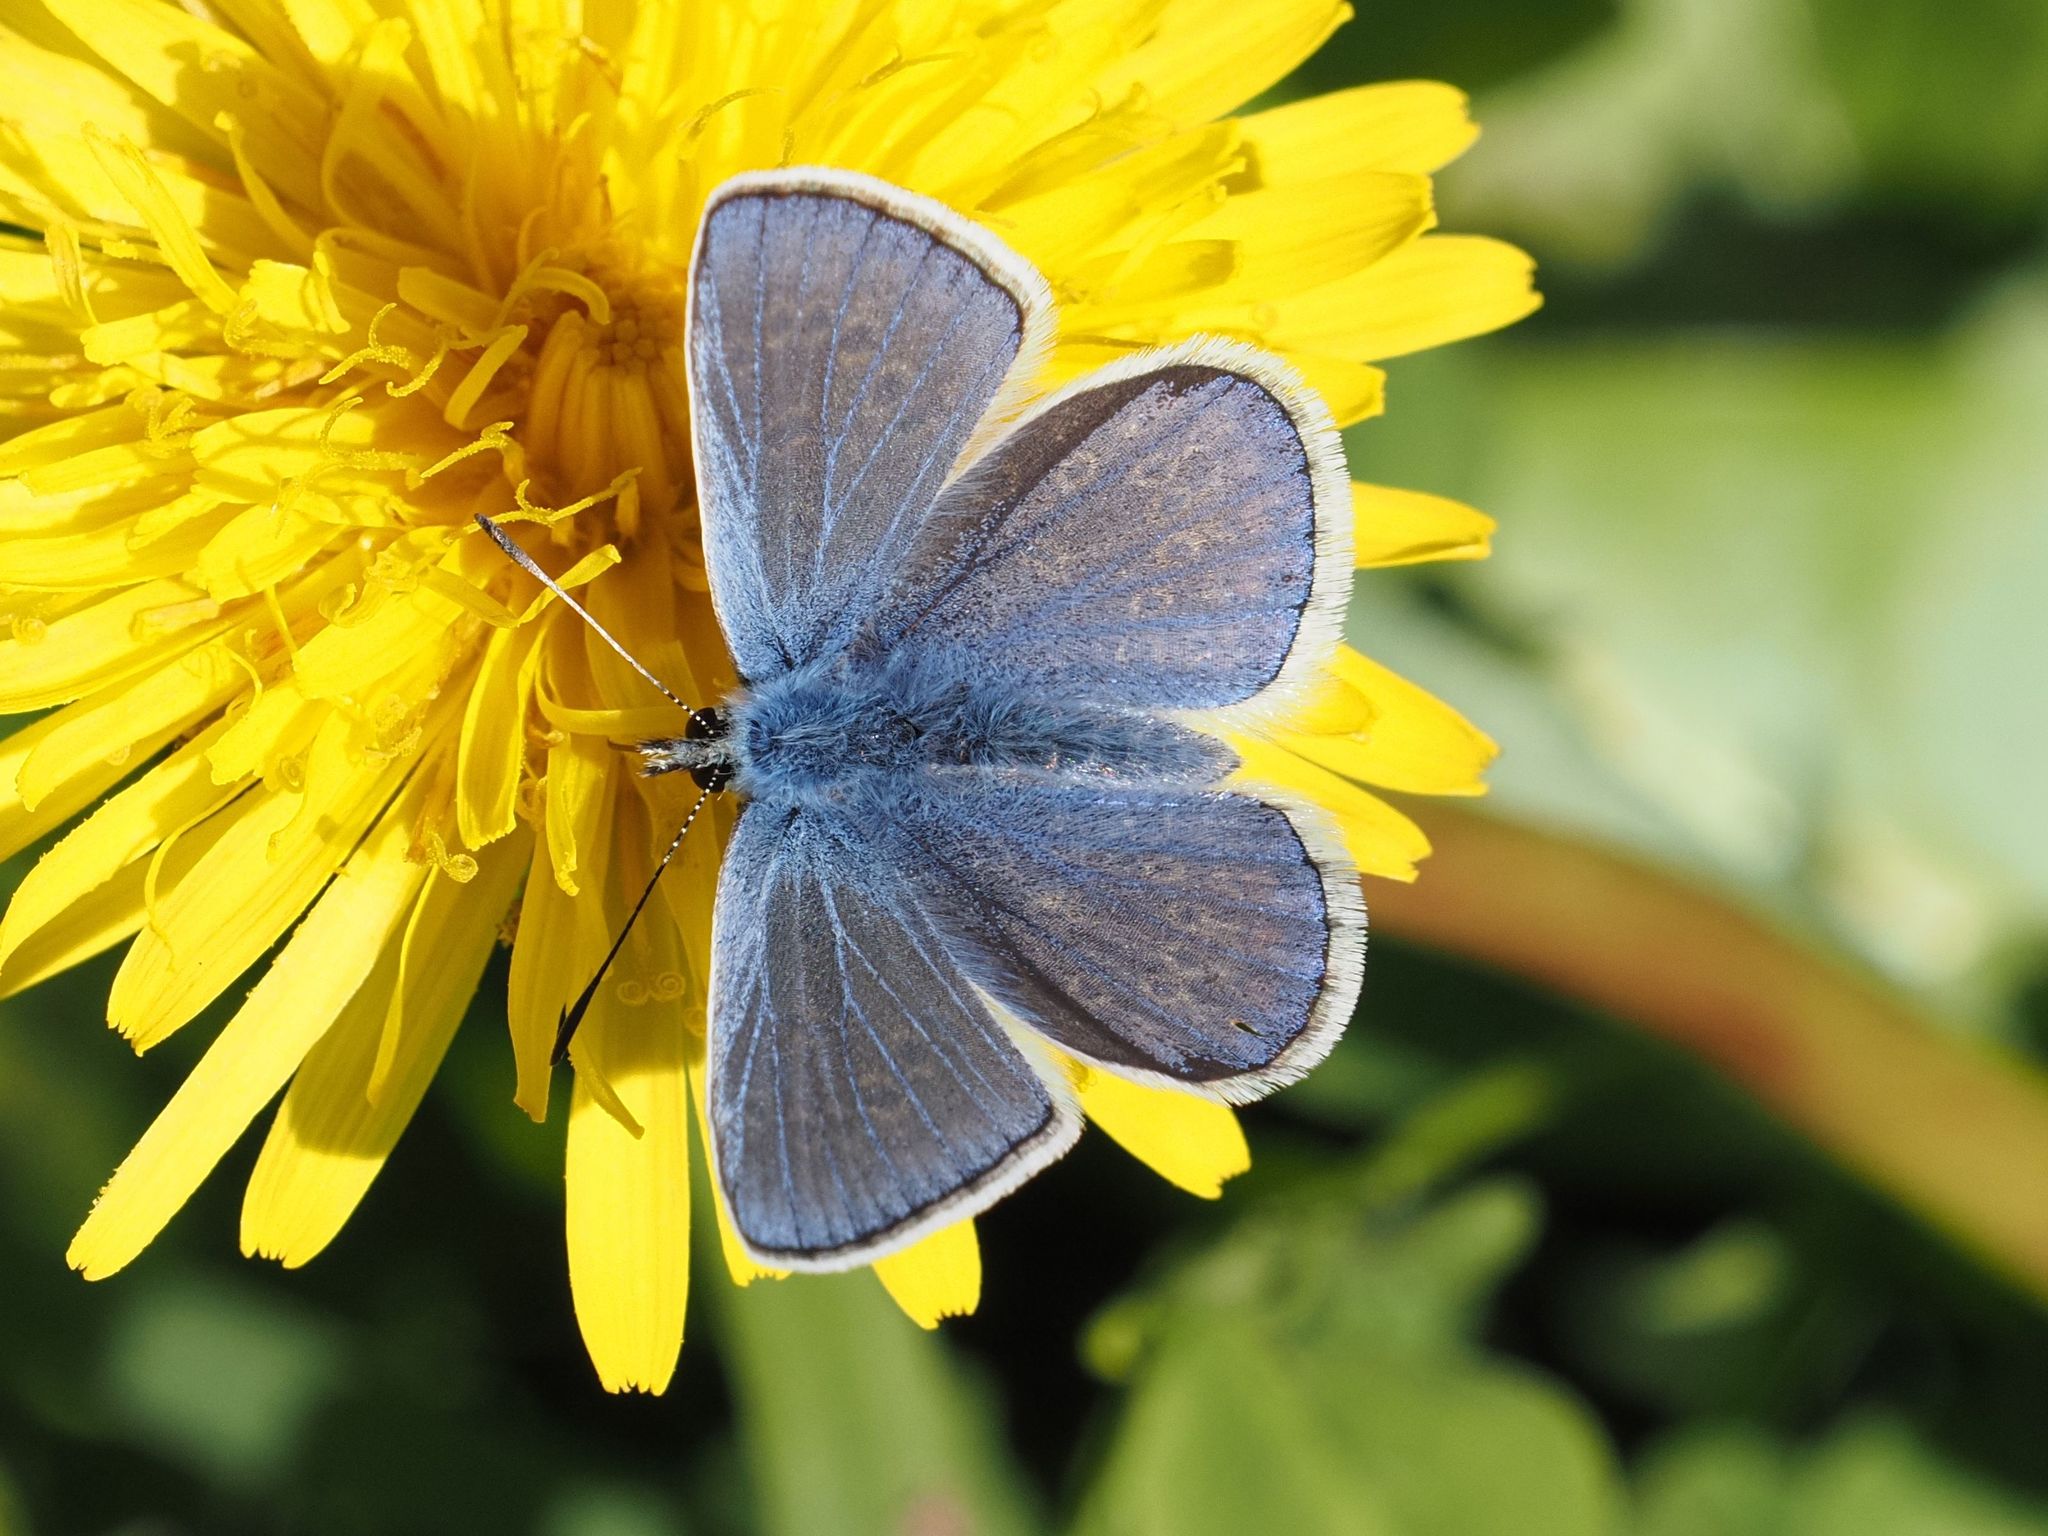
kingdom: Animalia
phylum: Arthropoda
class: Insecta
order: Lepidoptera
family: Lycaenidae
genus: Polyommatus
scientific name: Polyommatus icarus
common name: Common blue
